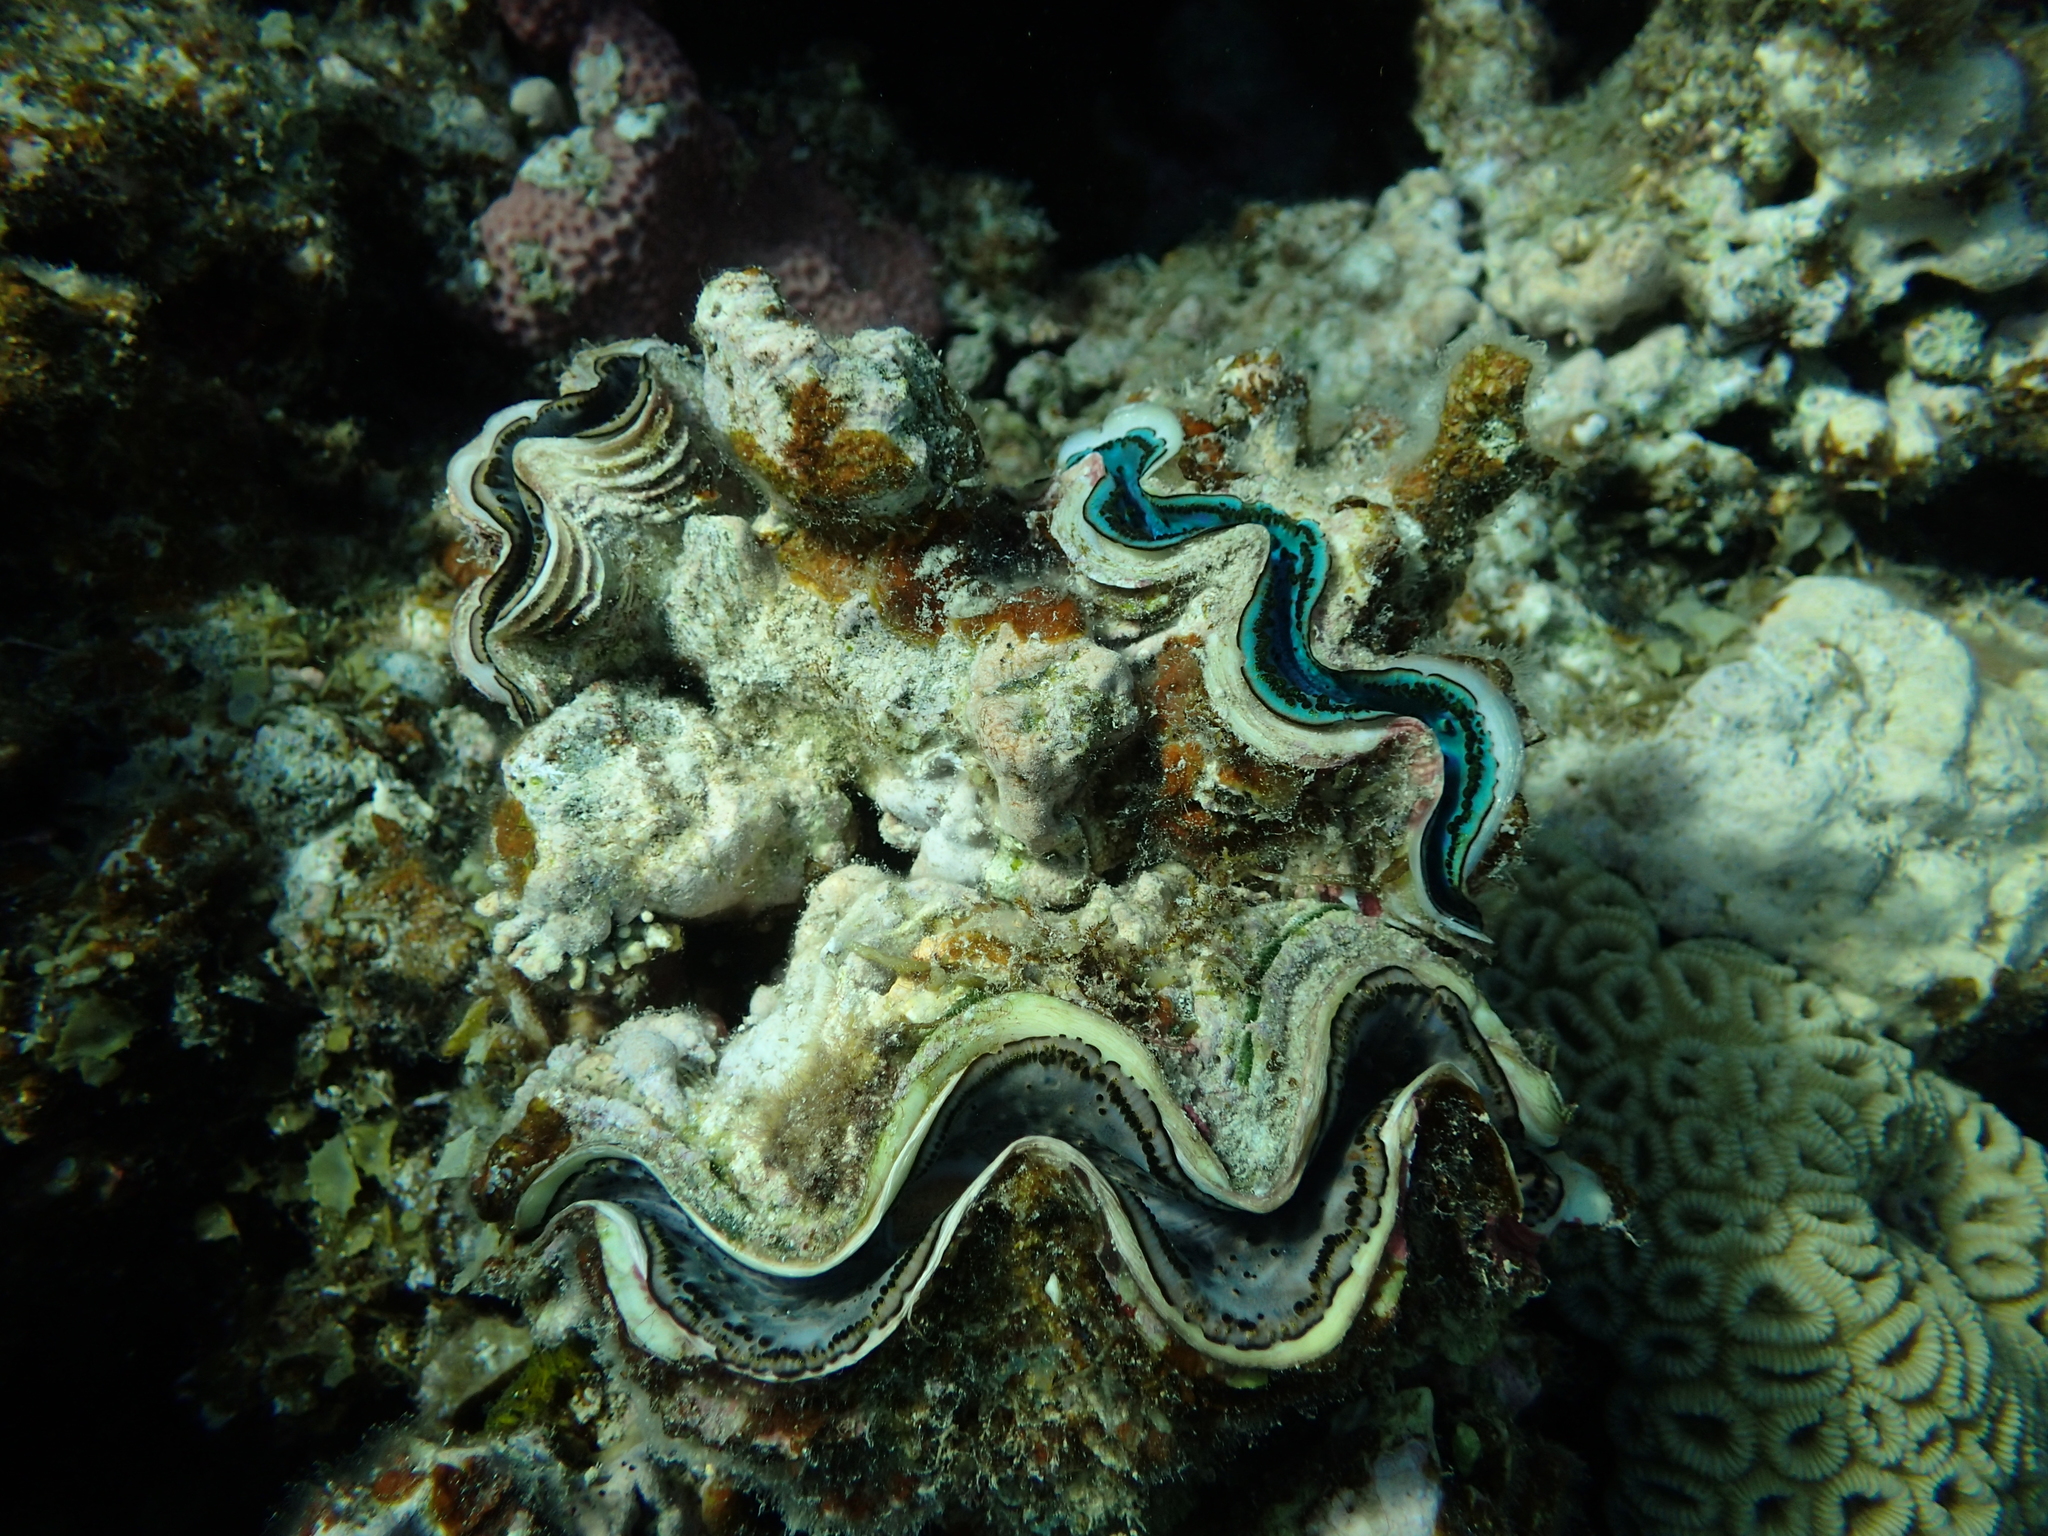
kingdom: Animalia
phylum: Mollusca
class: Bivalvia
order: Cardiida
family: Cardiidae
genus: Tridacna
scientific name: Tridacna maxima
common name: Small giant clam
